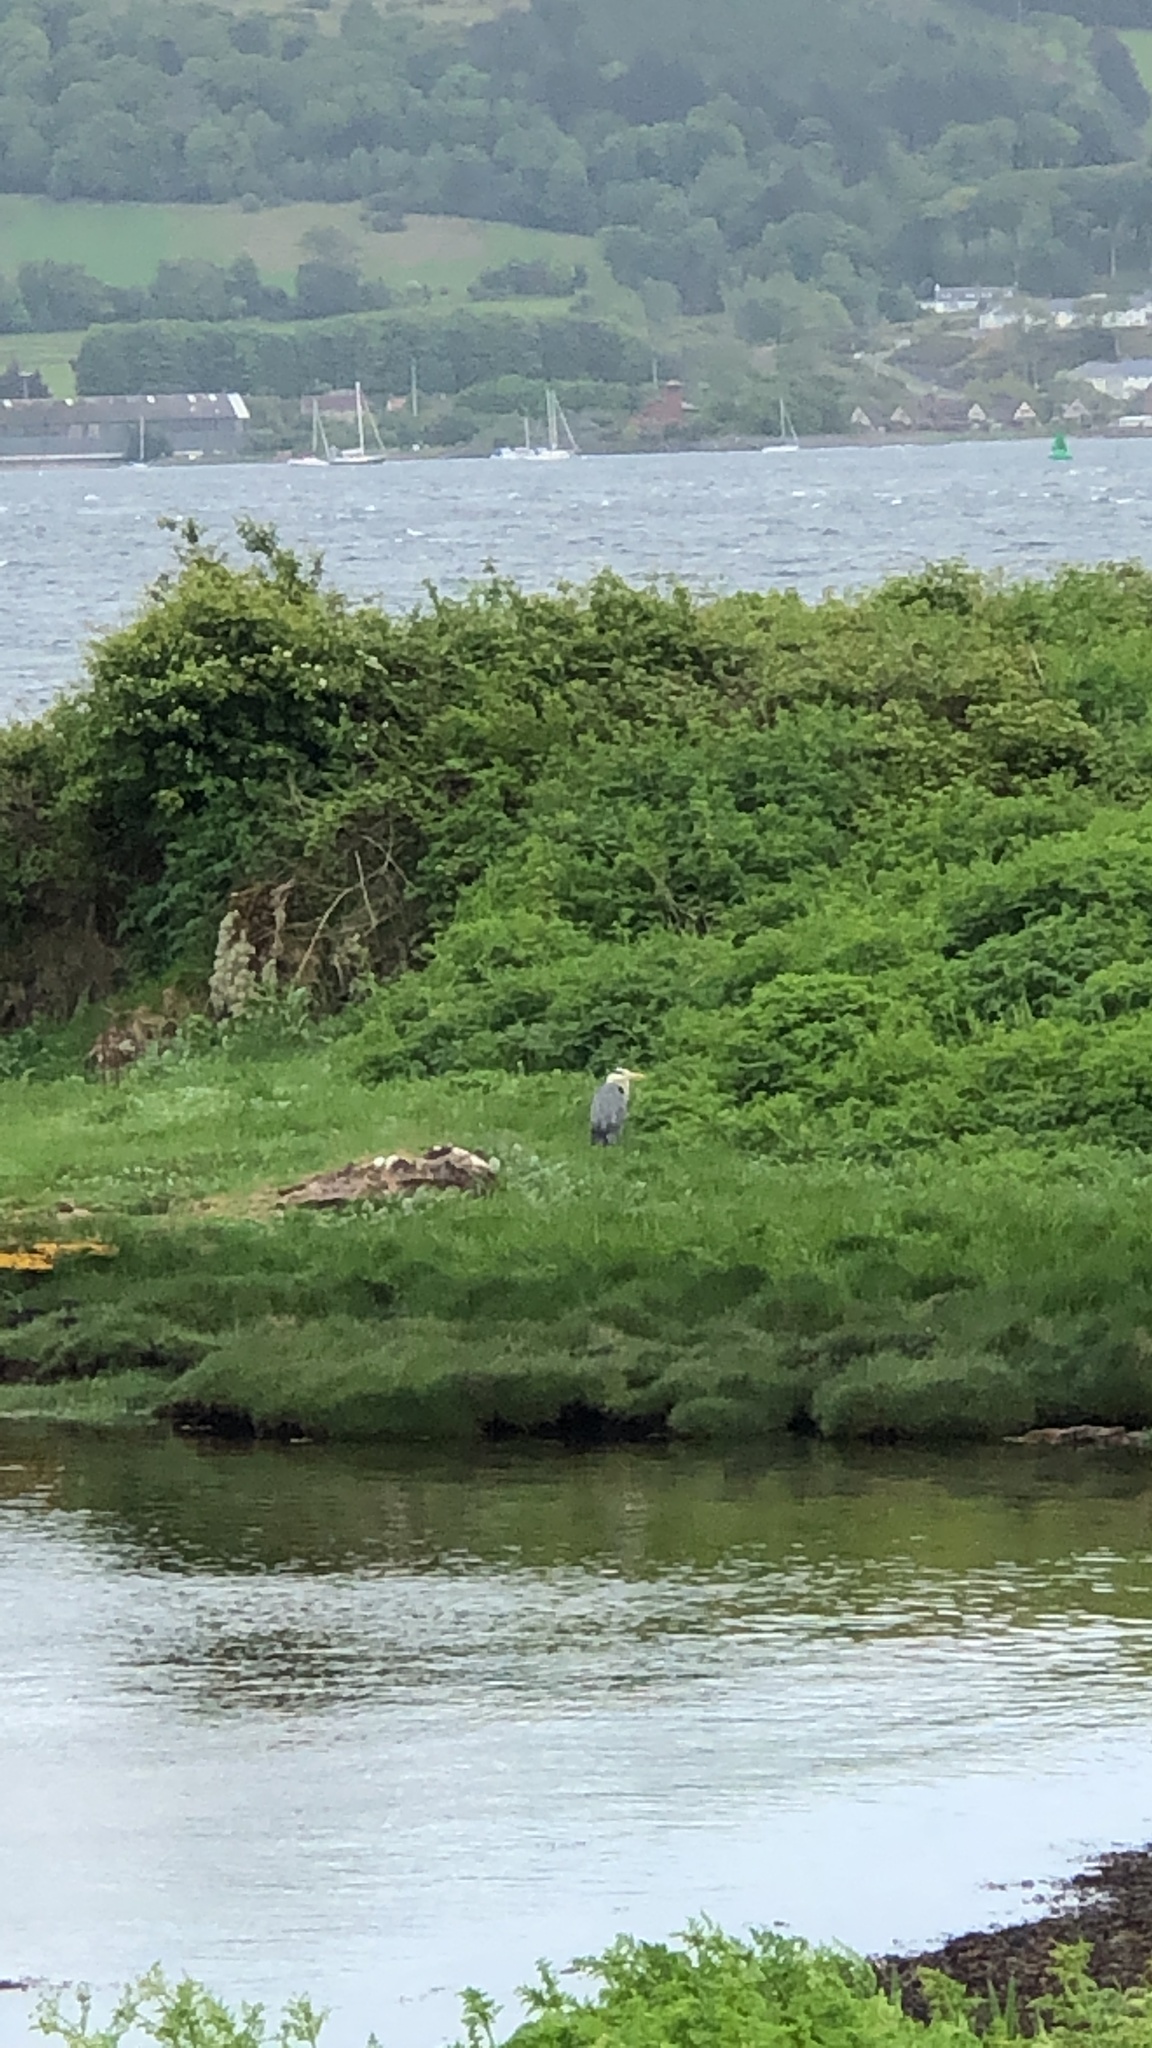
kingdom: Animalia
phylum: Chordata
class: Aves
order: Pelecaniformes
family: Ardeidae
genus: Ardea
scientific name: Ardea cinerea
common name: Grey heron
